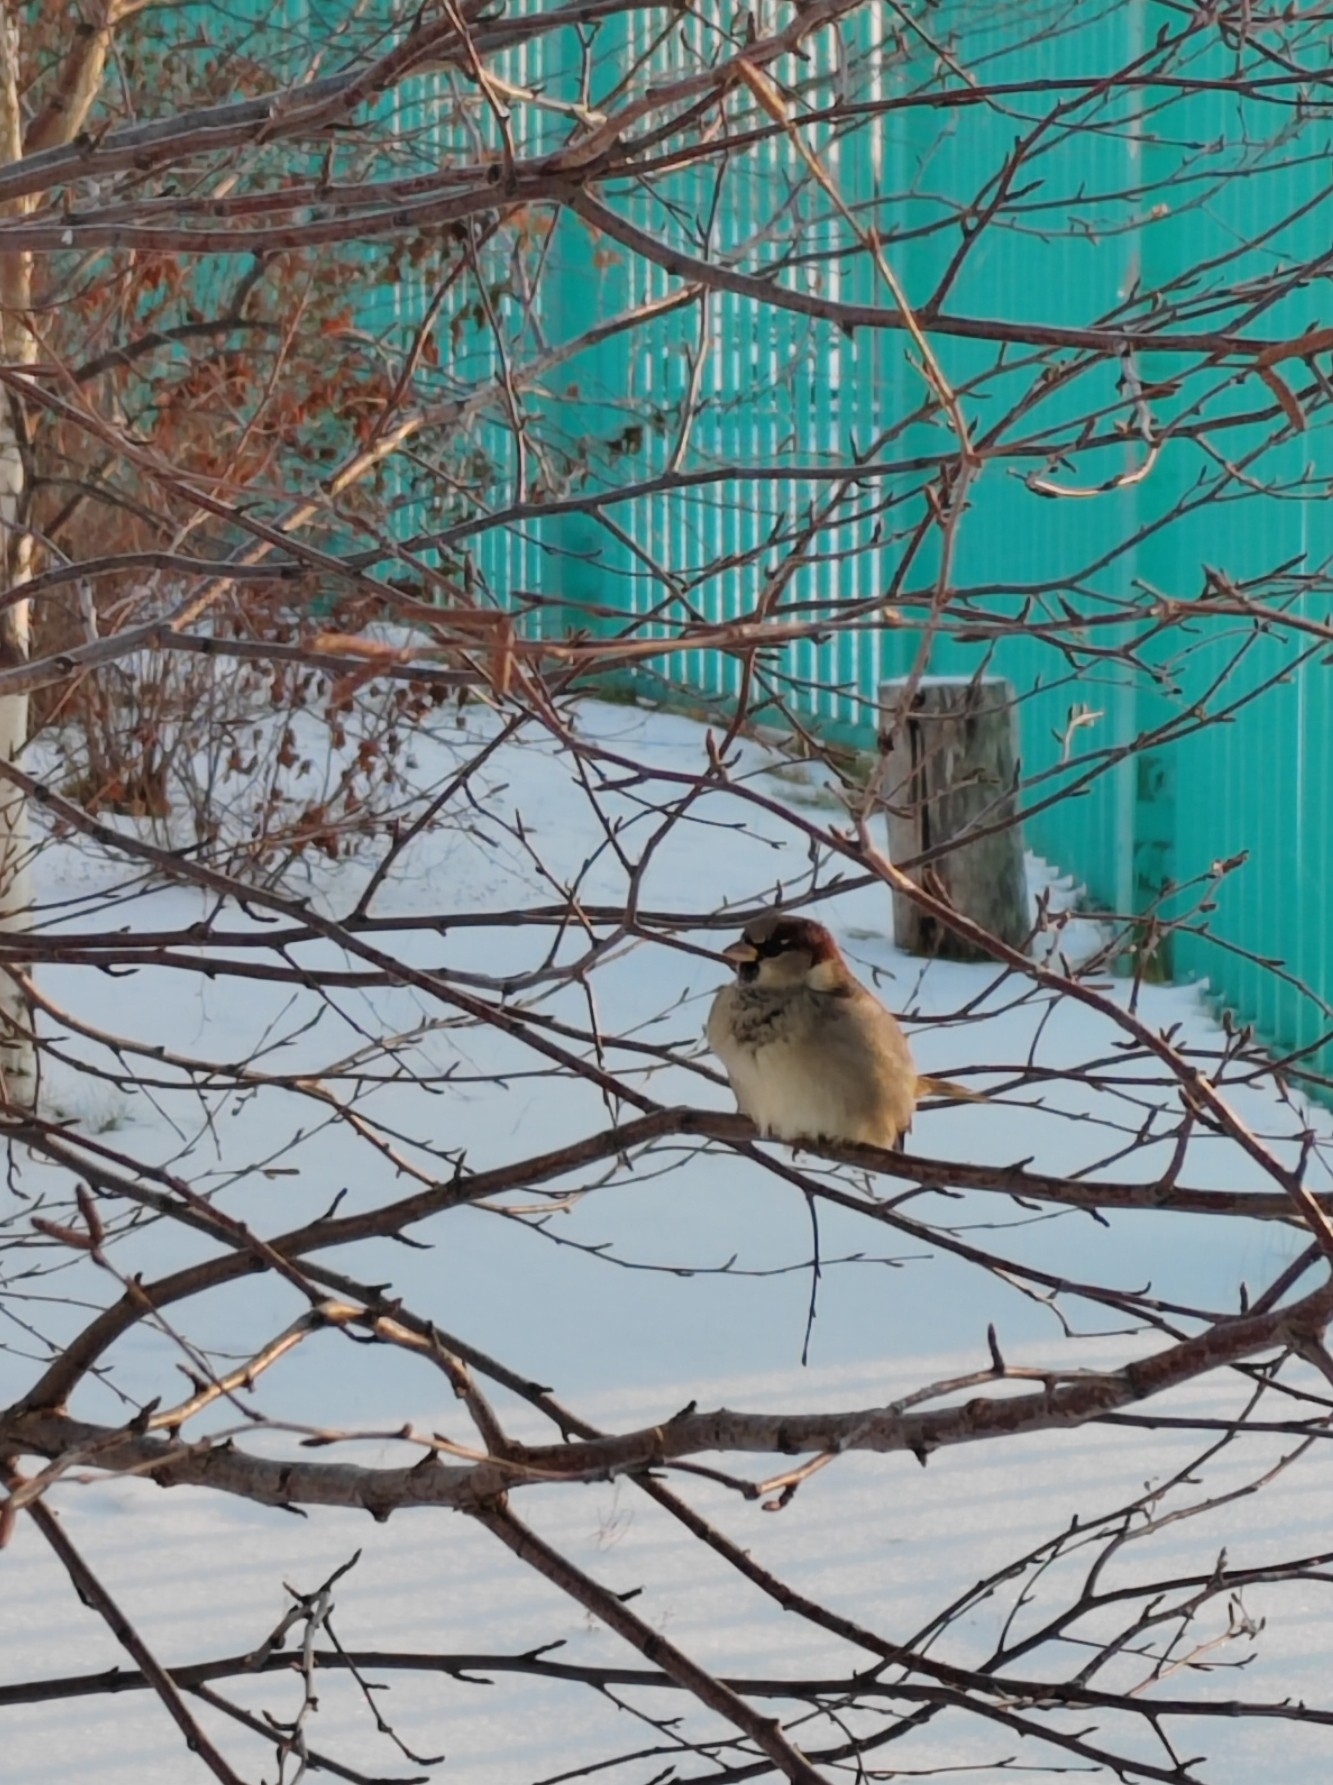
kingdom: Animalia
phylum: Chordata
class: Aves
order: Passeriformes
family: Passeridae
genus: Passer
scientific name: Passer domesticus
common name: House sparrow
